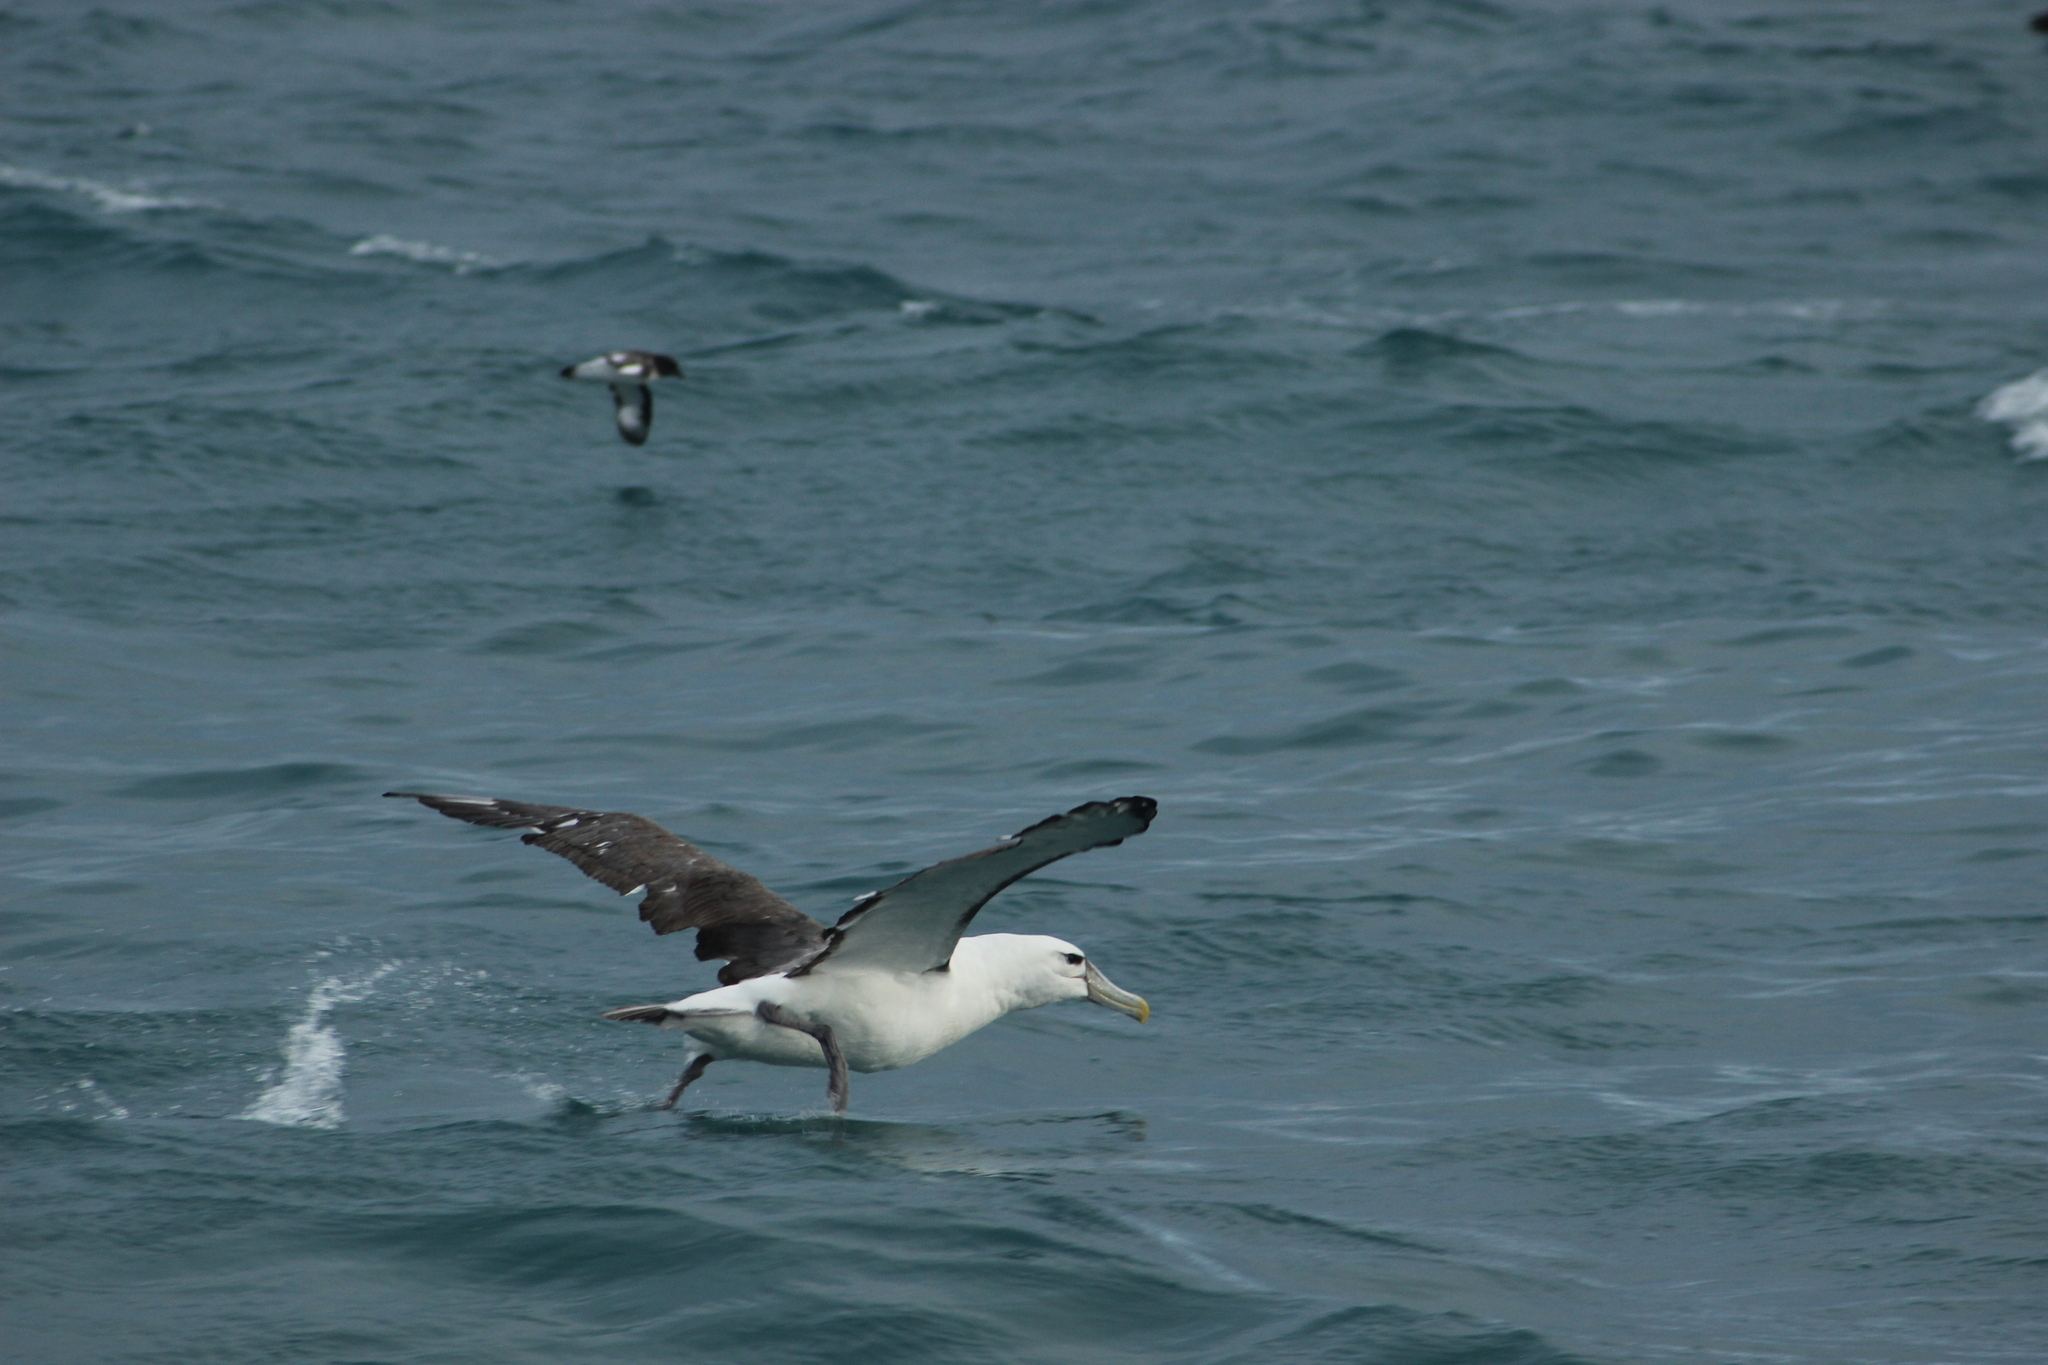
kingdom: Animalia
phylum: Chordata
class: Aves
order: Procellariiformes
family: Diomedeidae
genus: Thalassarche
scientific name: Thalassarche cauta
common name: Shy albatross
